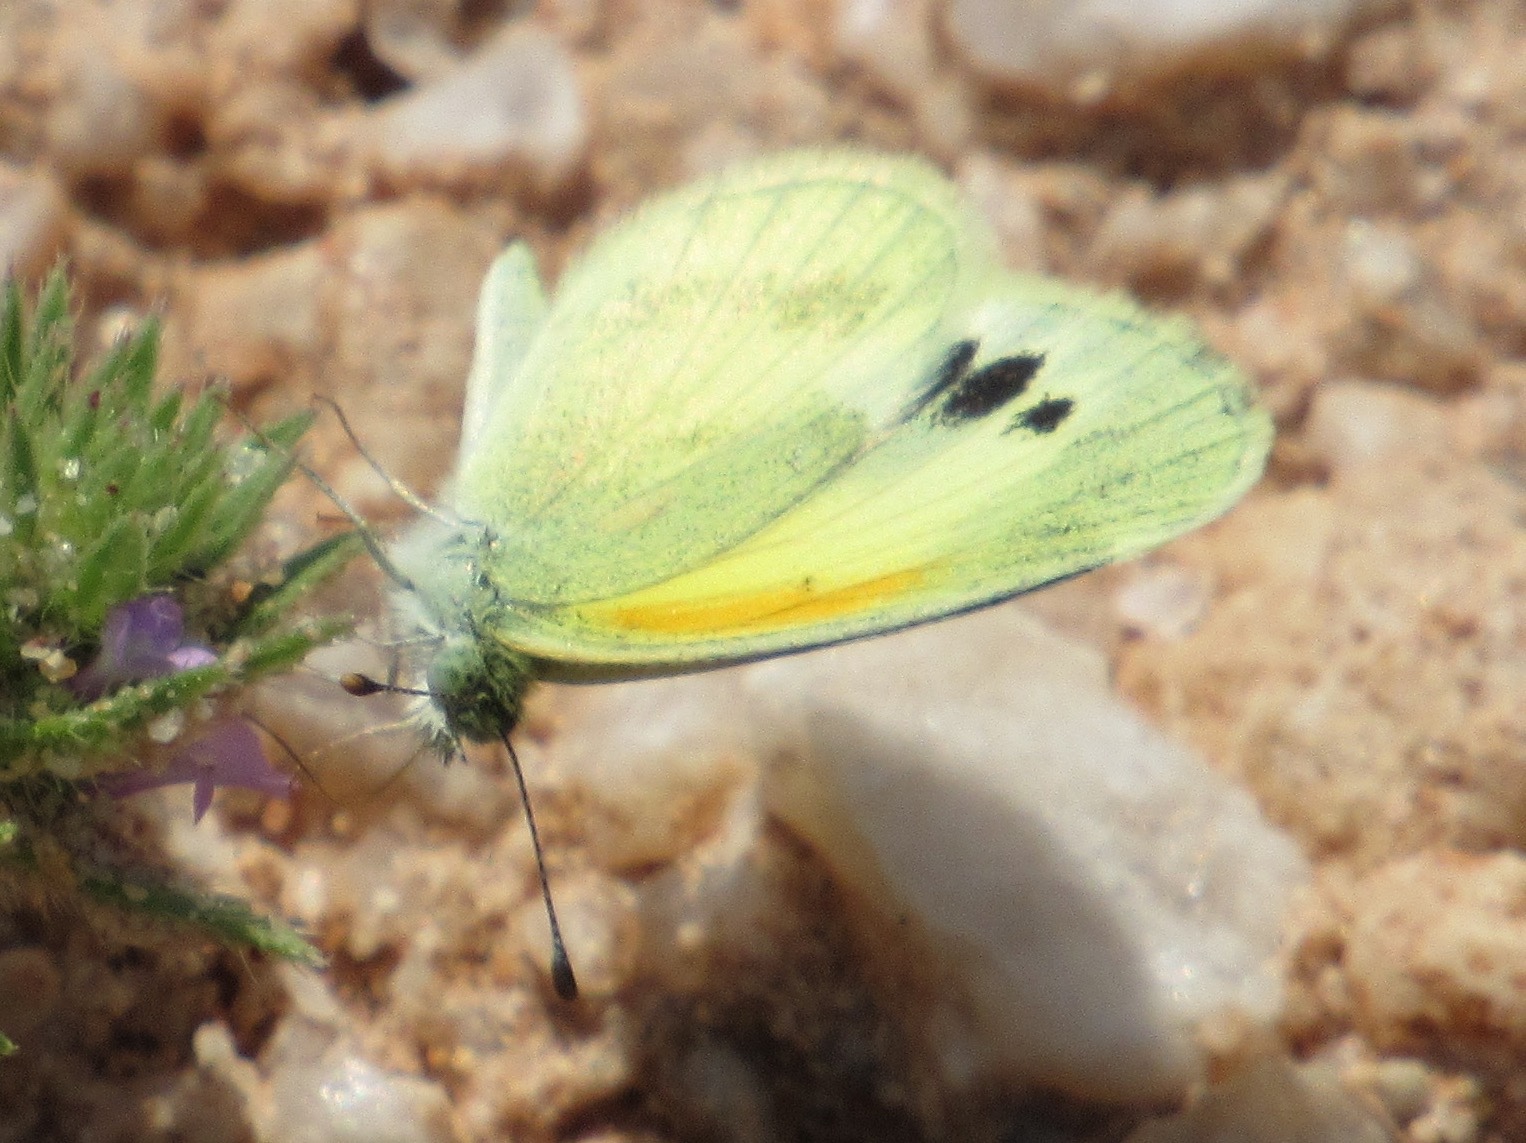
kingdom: Animalia
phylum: Arthropoda
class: Insecta
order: Lepidoptera
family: Pieridae
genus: Nathalis
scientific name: Nathalis iole
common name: Dainty sulphur
